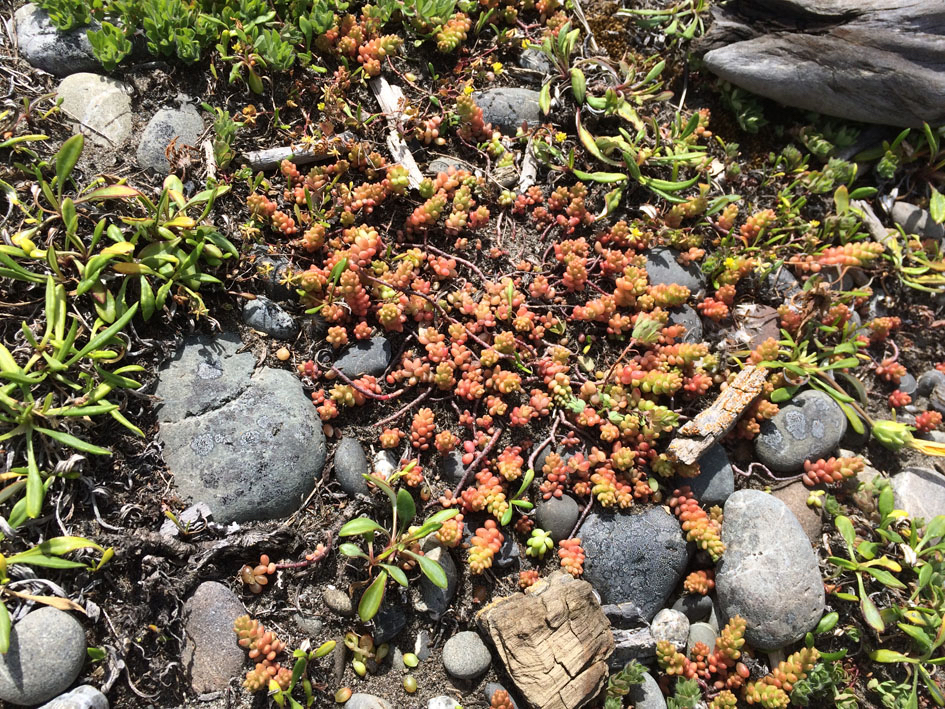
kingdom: Plantae
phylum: Tracheophyta
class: Magnoliopsida
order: Saxifragales
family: Crassulaceae
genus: Sedum
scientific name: Sedum album
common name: White stonecrop
